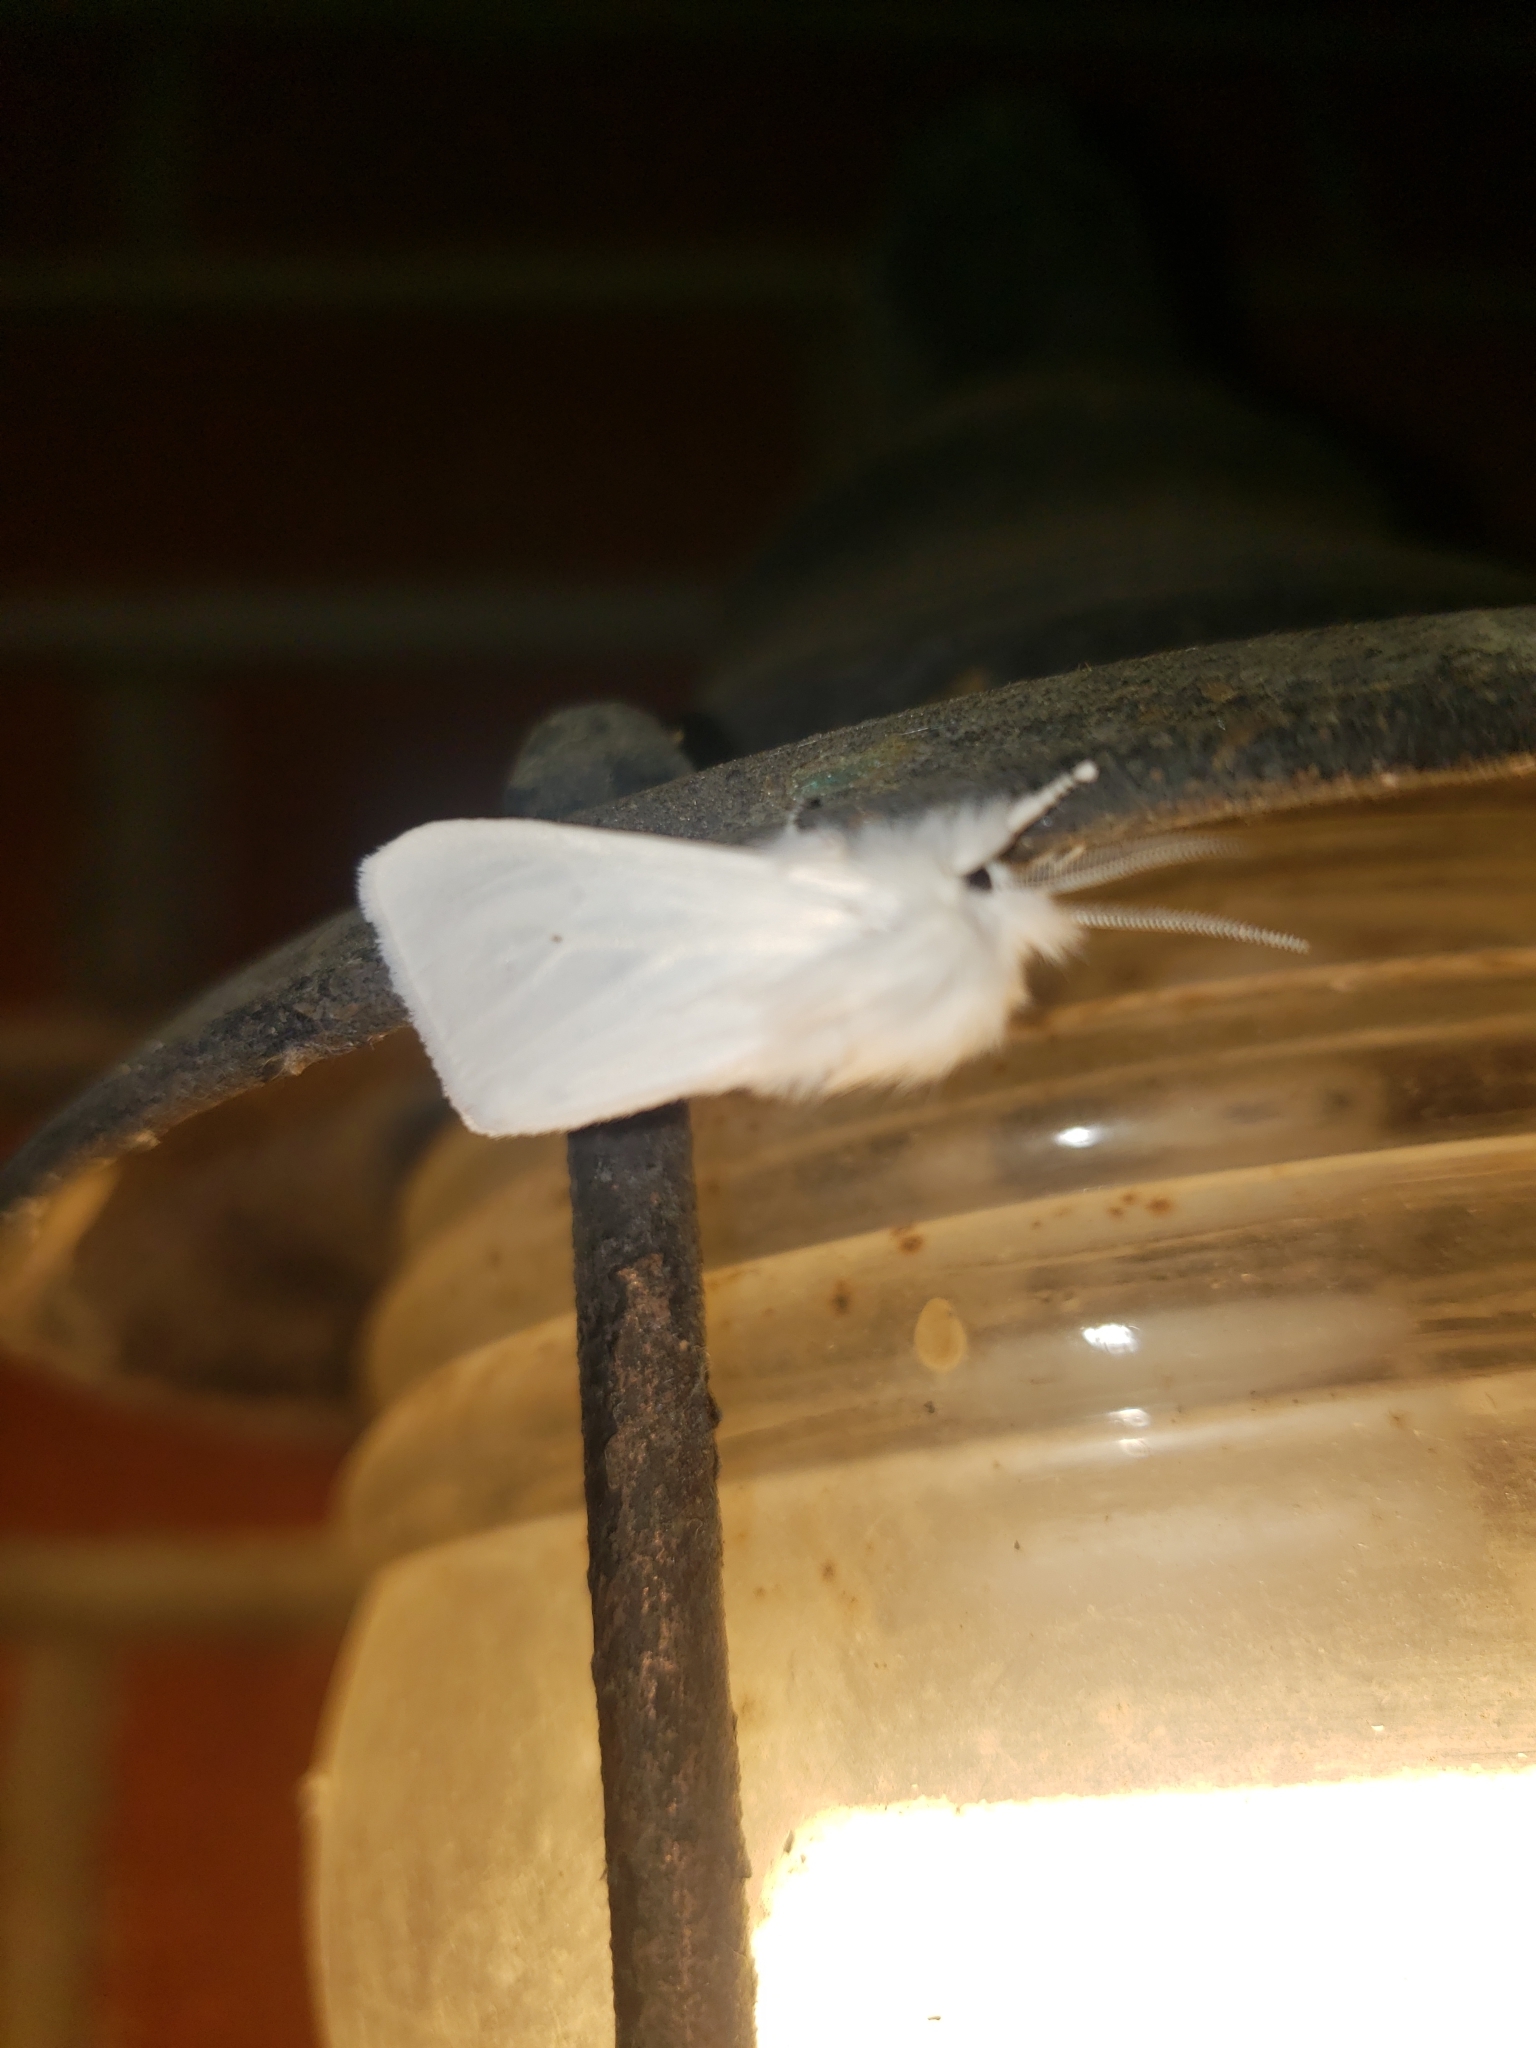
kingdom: Animalia
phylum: Arthropoda
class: Insecta
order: Lepidoptera
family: Erebidae
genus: Spilosoma
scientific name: Spilosoma virginica
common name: Virginia tiger moth
